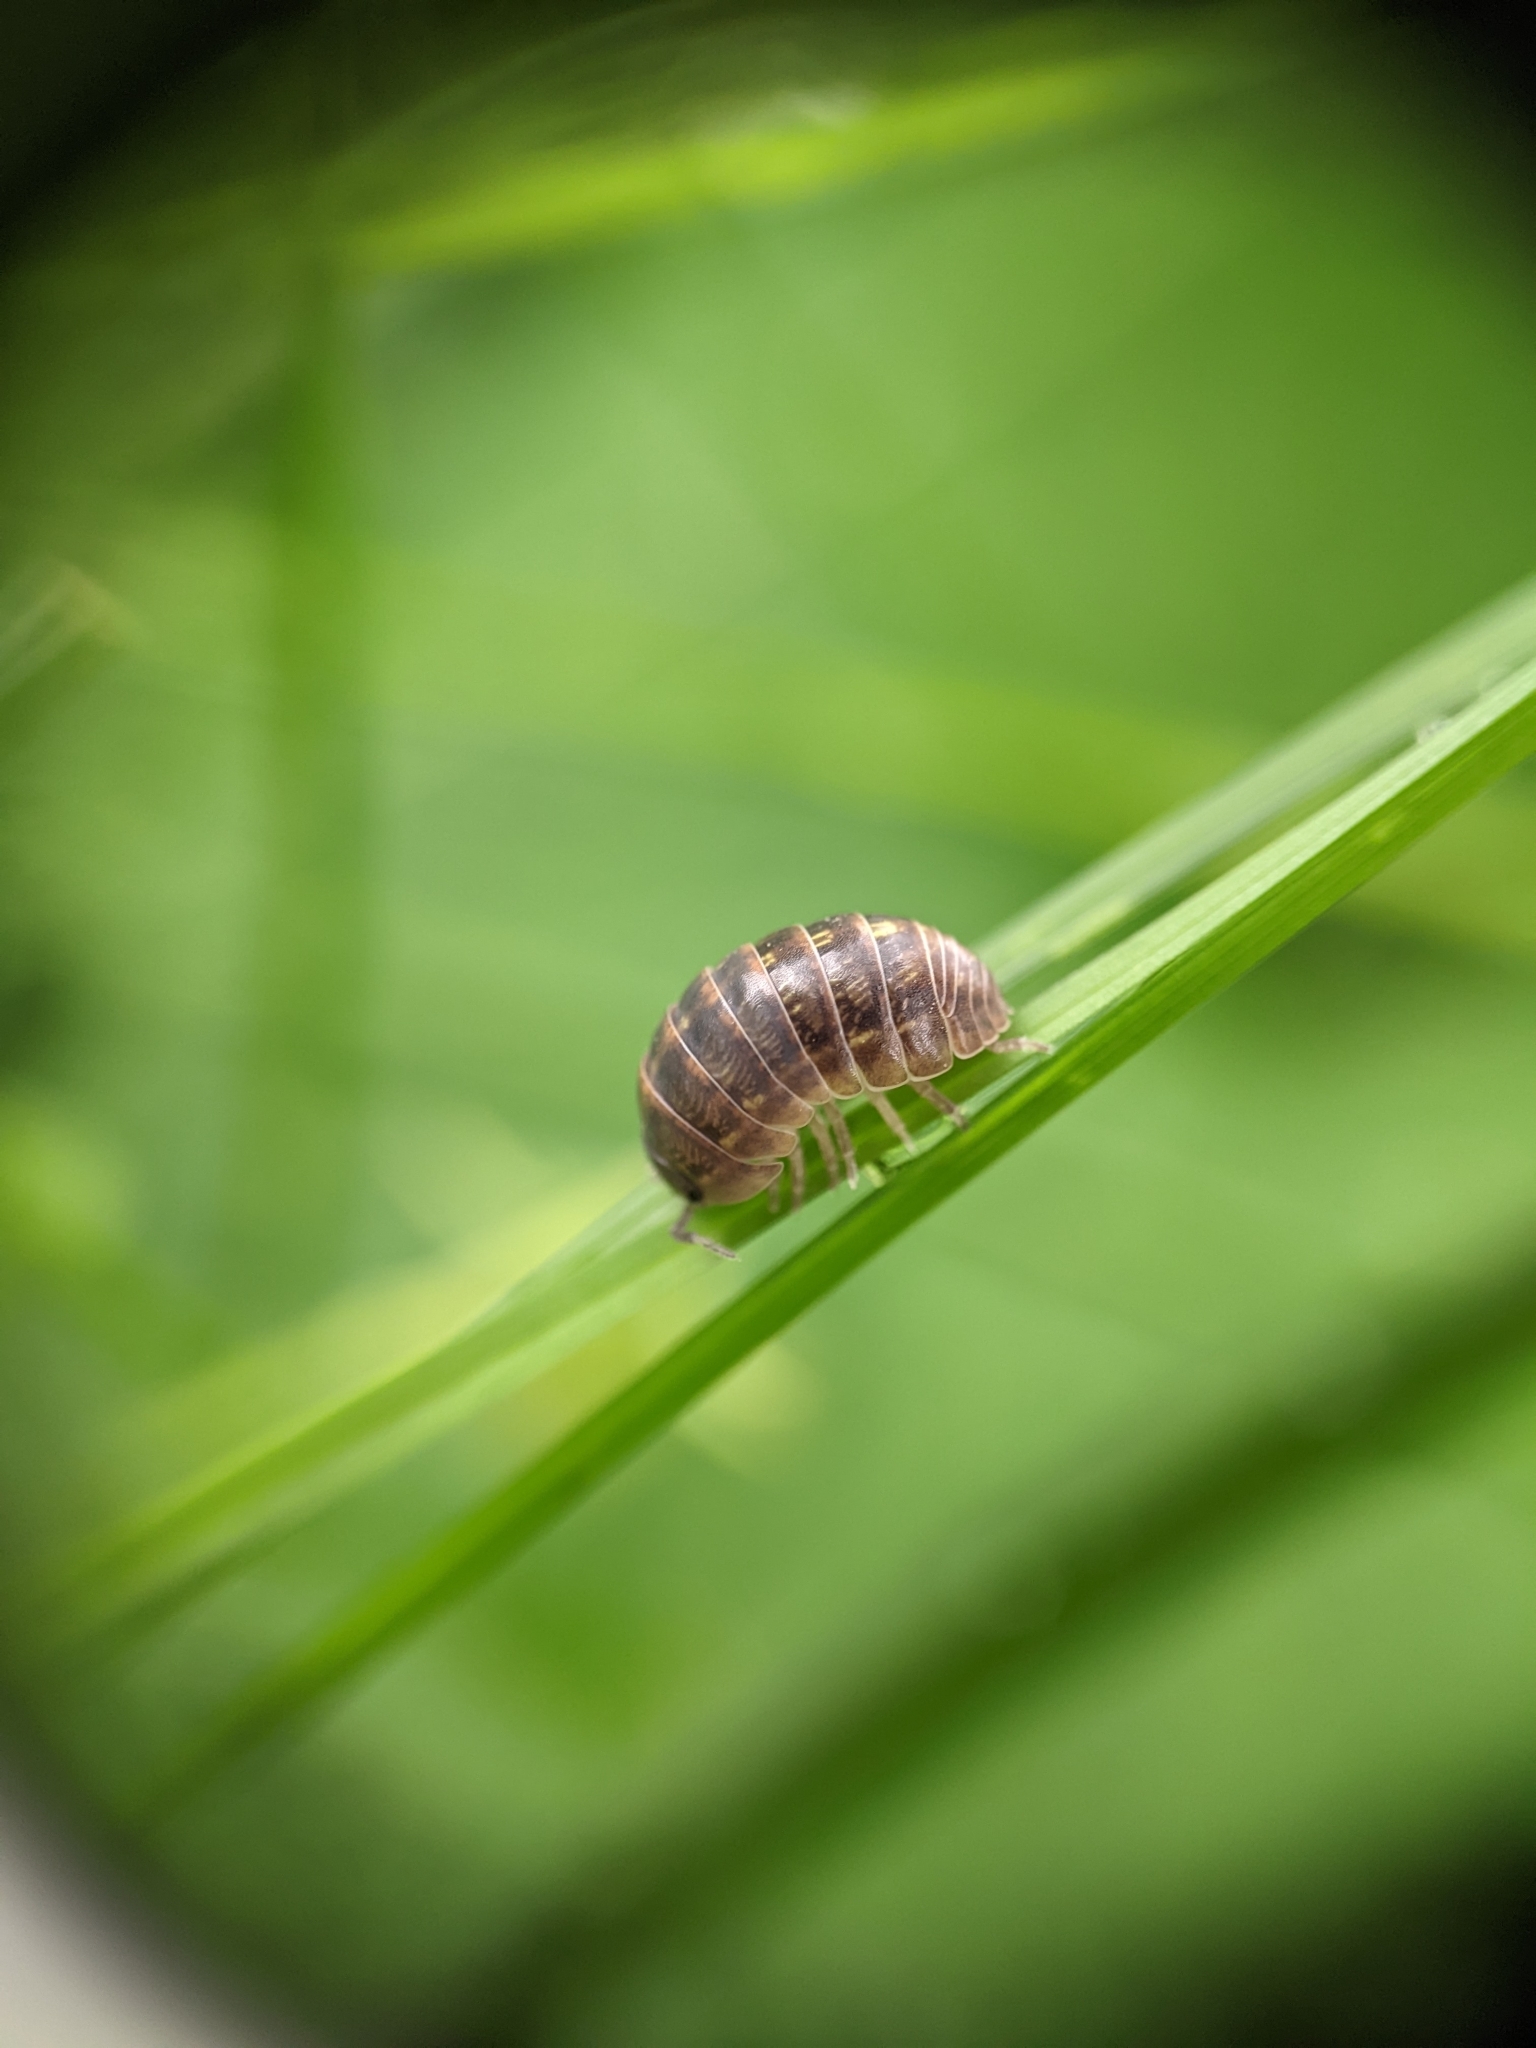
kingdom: Animalia
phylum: Arthropoda
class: Malacostraca
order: Isopoda
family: Armadillidiidae
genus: Armadillidium
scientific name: Armadillidium vulgare
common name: Common pill woodlouse
